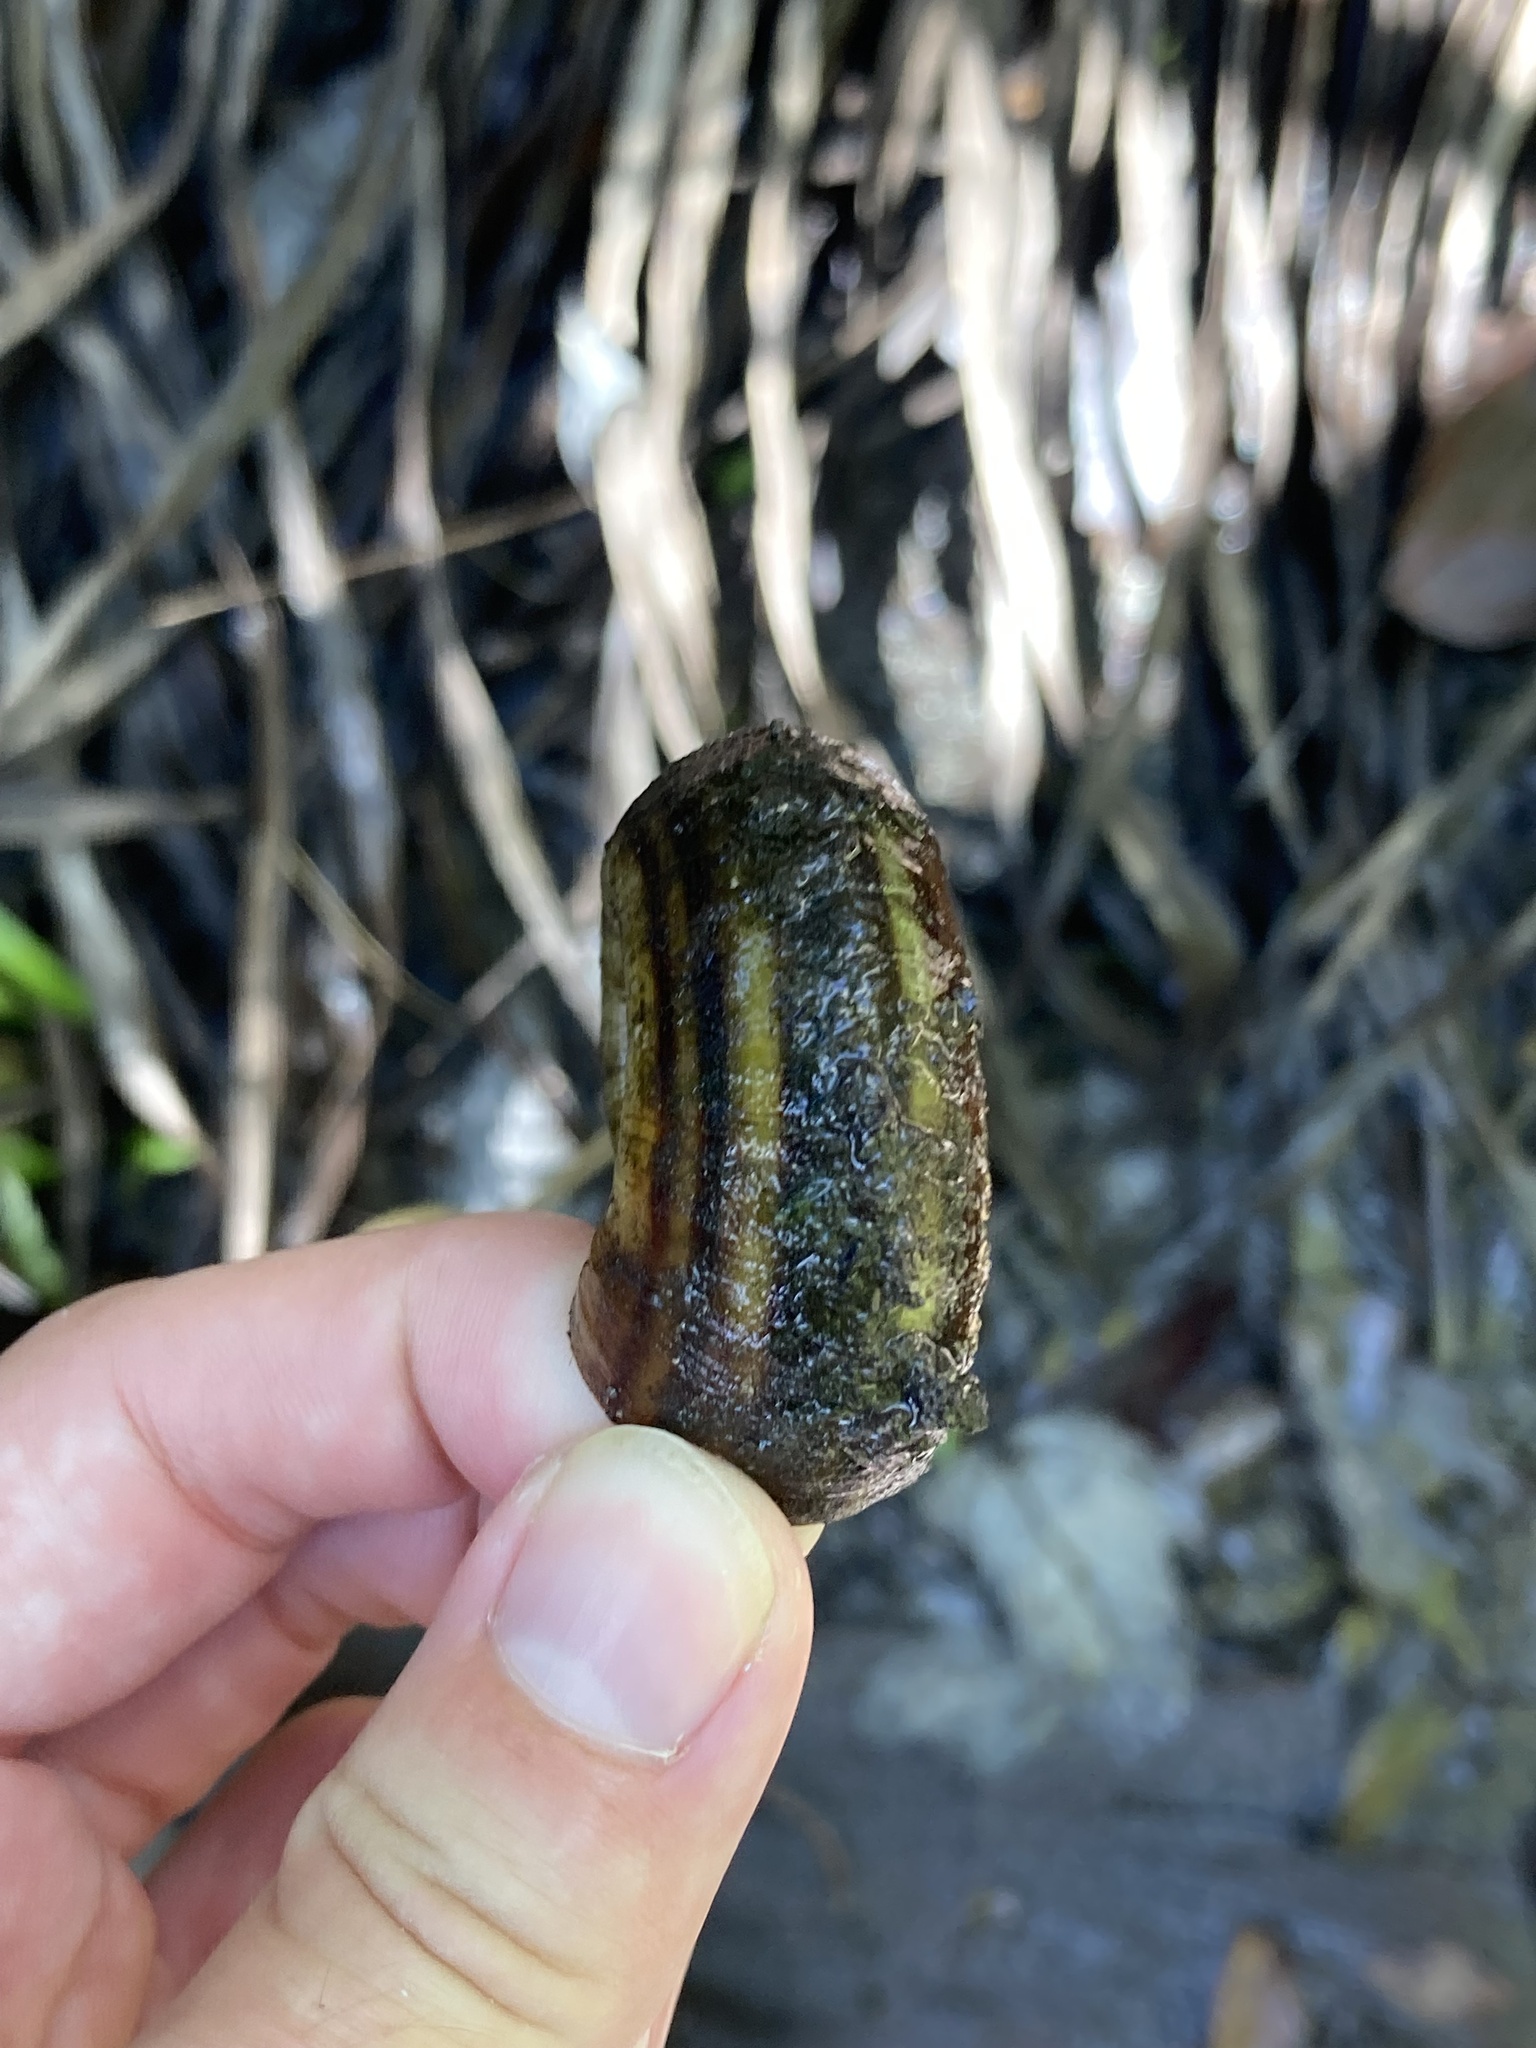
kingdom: Animalia
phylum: Mollusca
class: Gastropoda
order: Architaenioglossa
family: Ampullariidae
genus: Marisa
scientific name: Marisa cornuarietis
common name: Giant ramshorn snail
